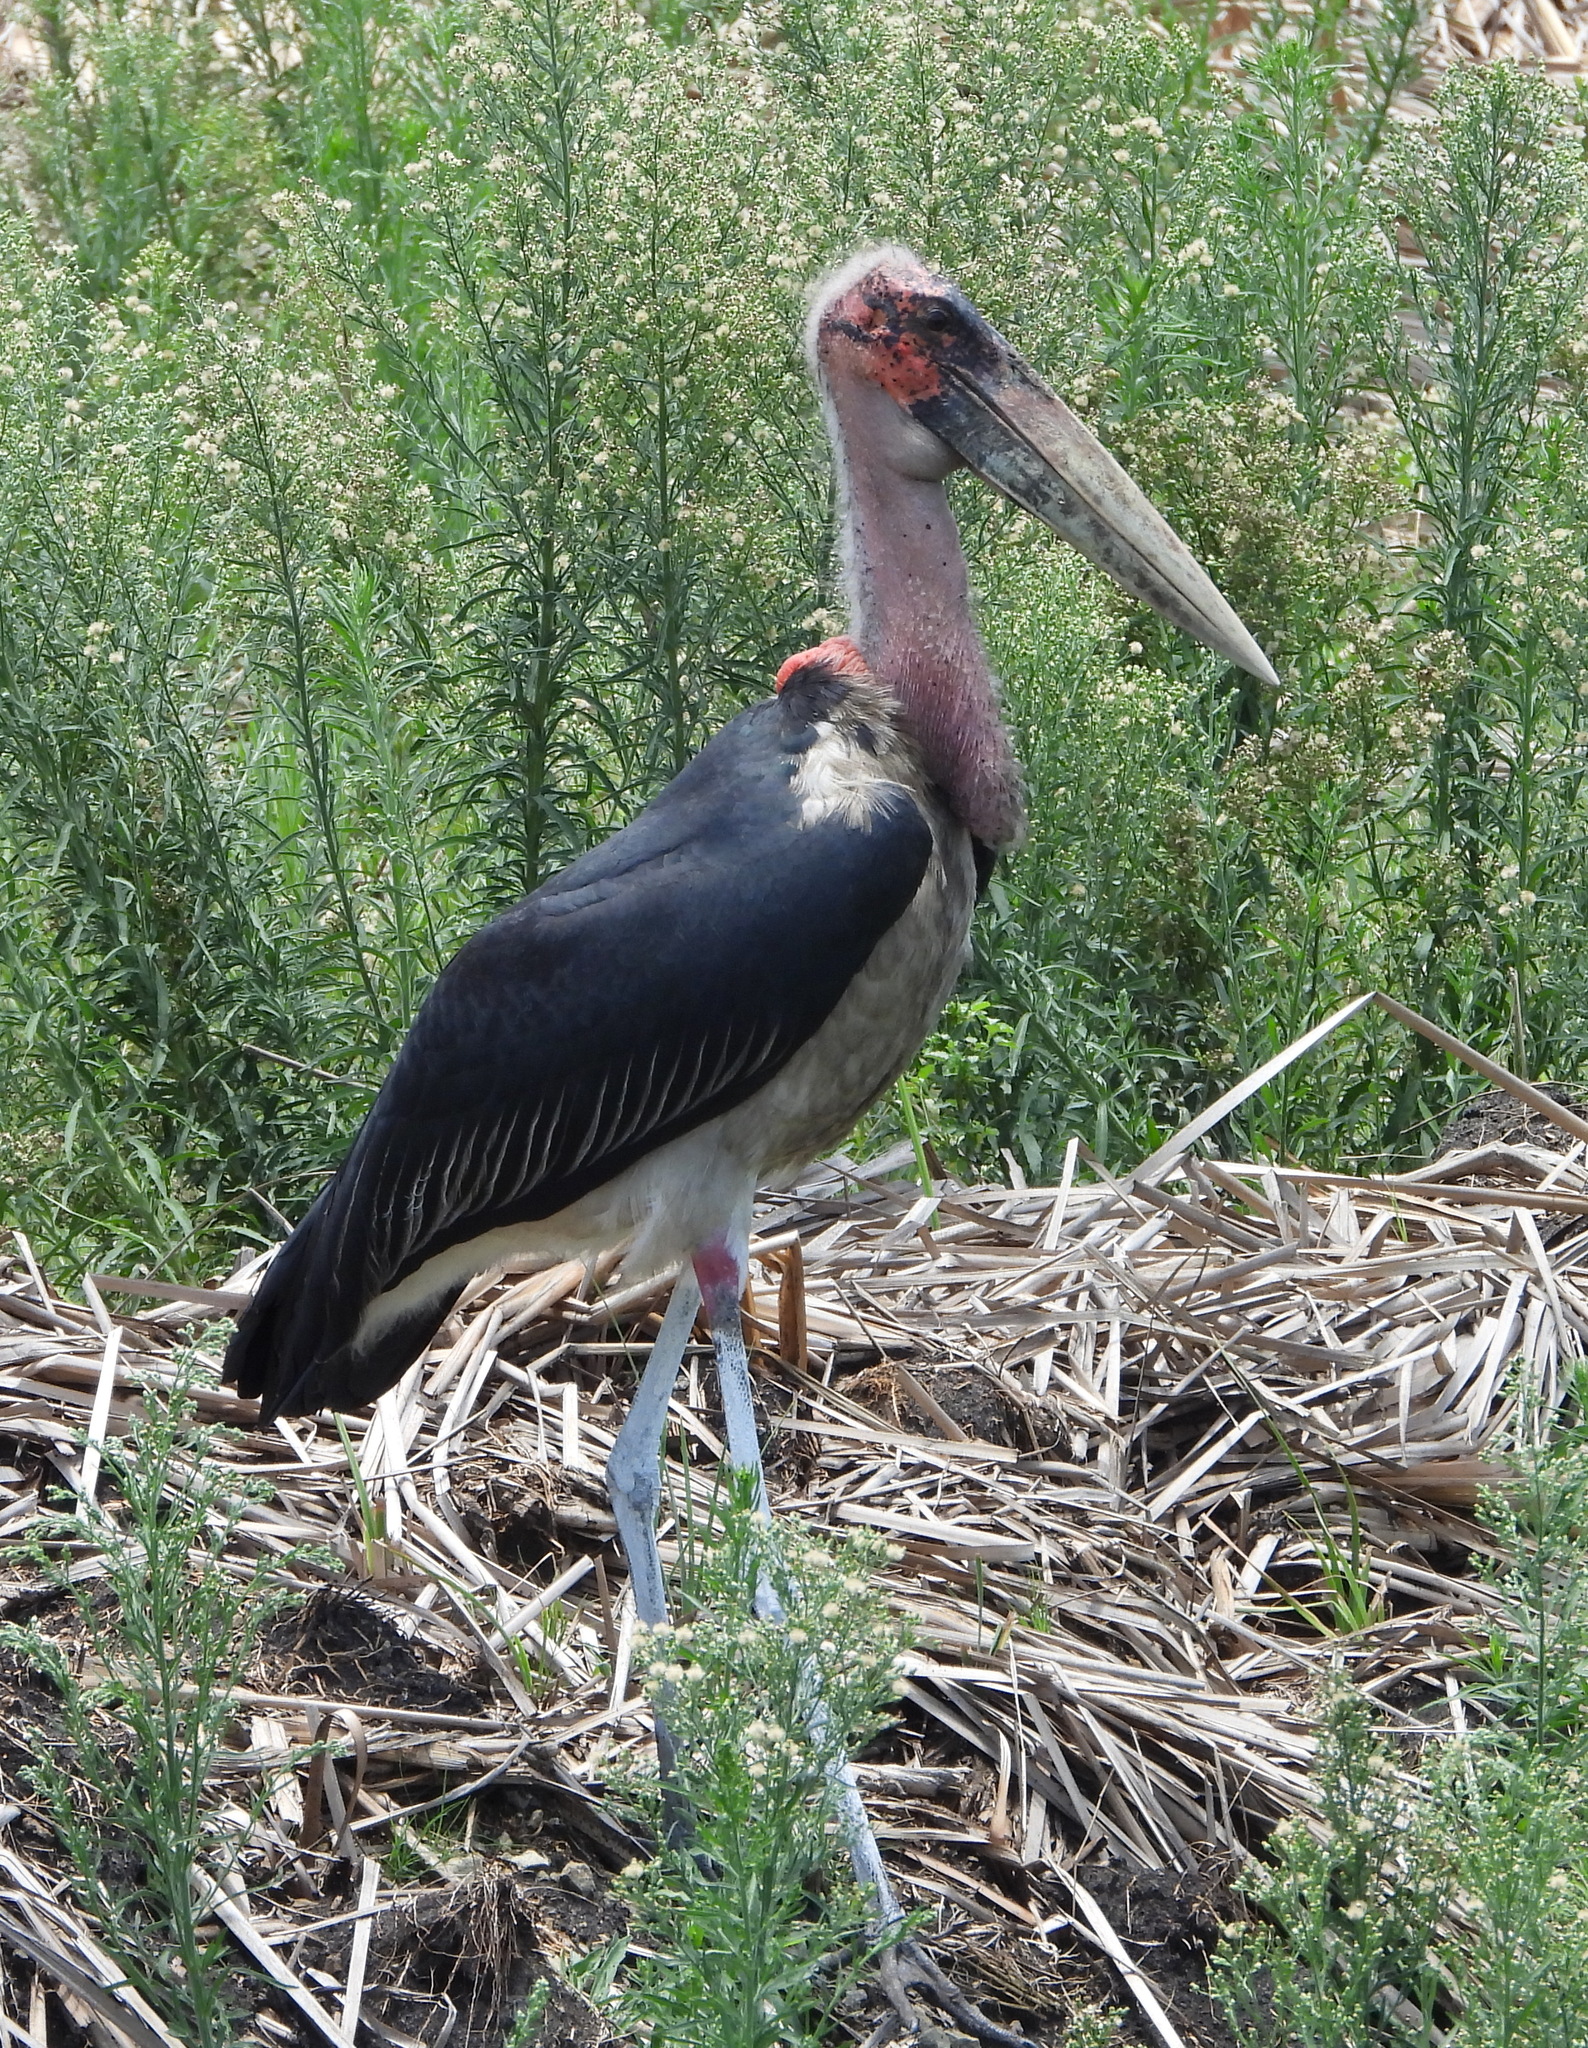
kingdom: Animalia
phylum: Chordata
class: Aves
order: Ciconiiformes
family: Ciconiidae
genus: Leptoptilos
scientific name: Leptoptilos crumenifer
